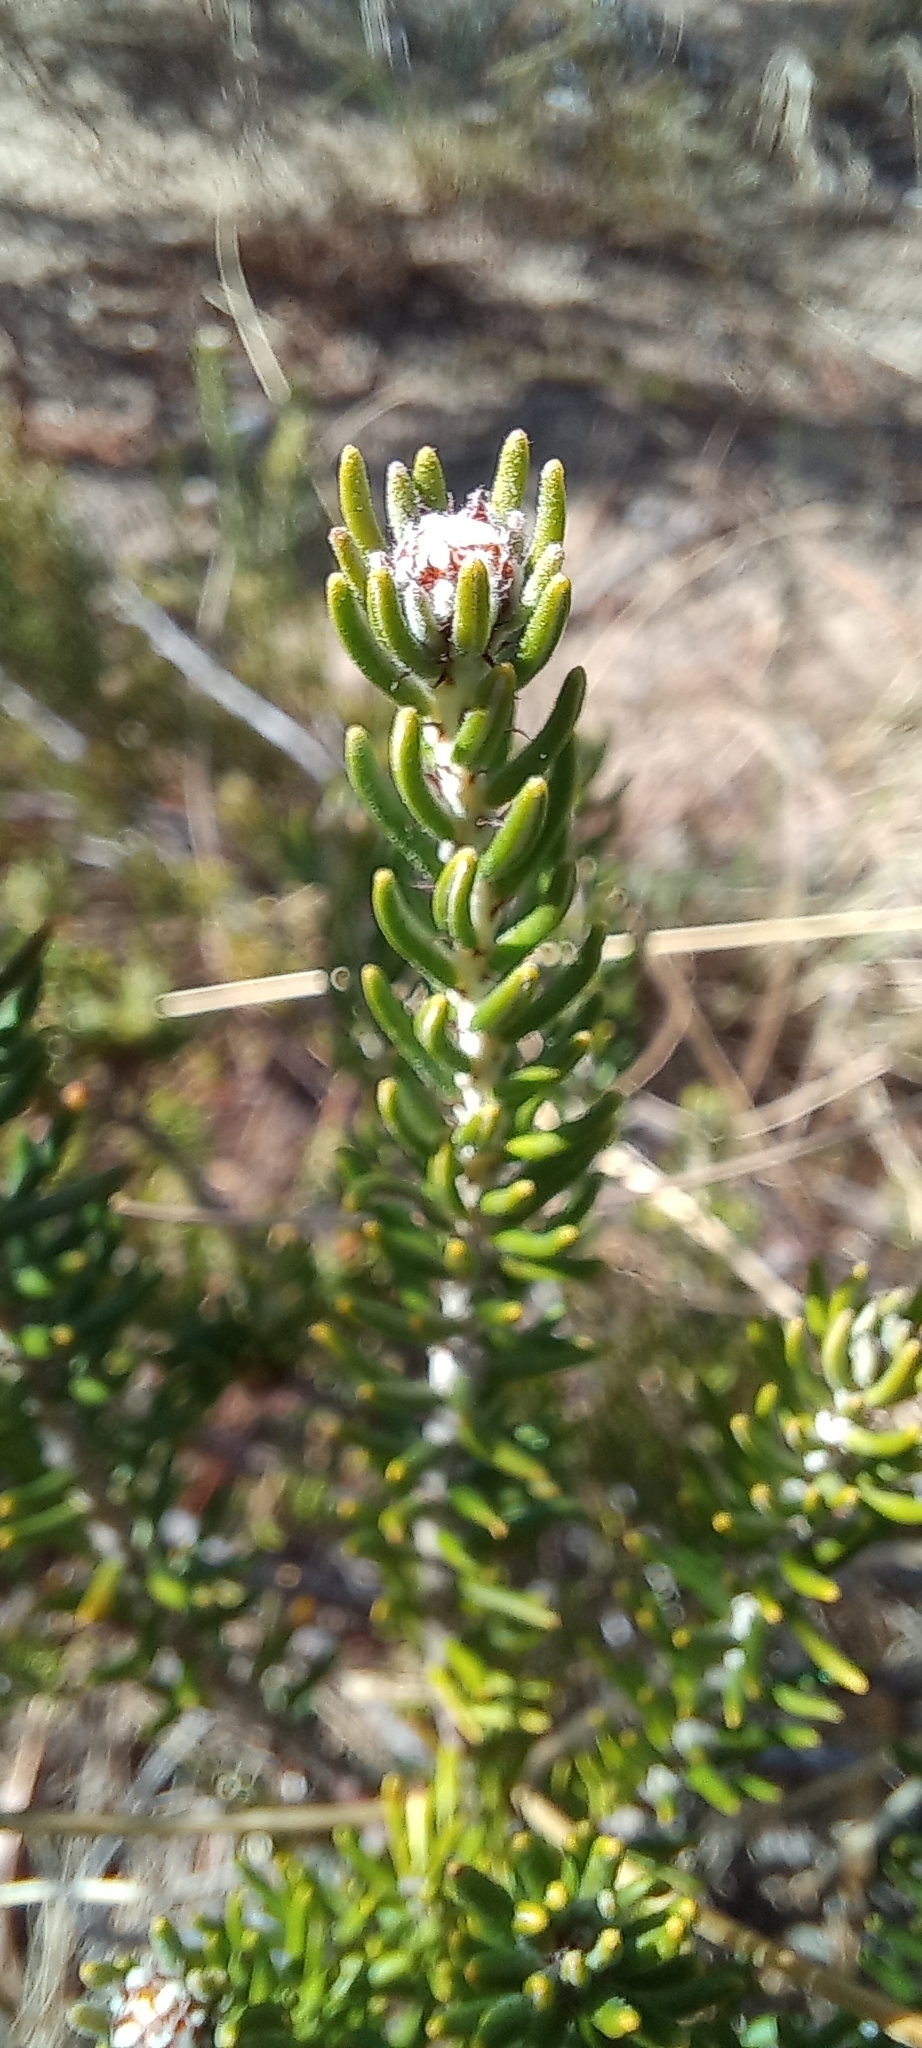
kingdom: Plantae
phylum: Tracheophyta
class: Magnoliopsida
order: Rosales
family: Rhamnaceae
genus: Trichocephalus
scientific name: Trichocephalus stipularis
